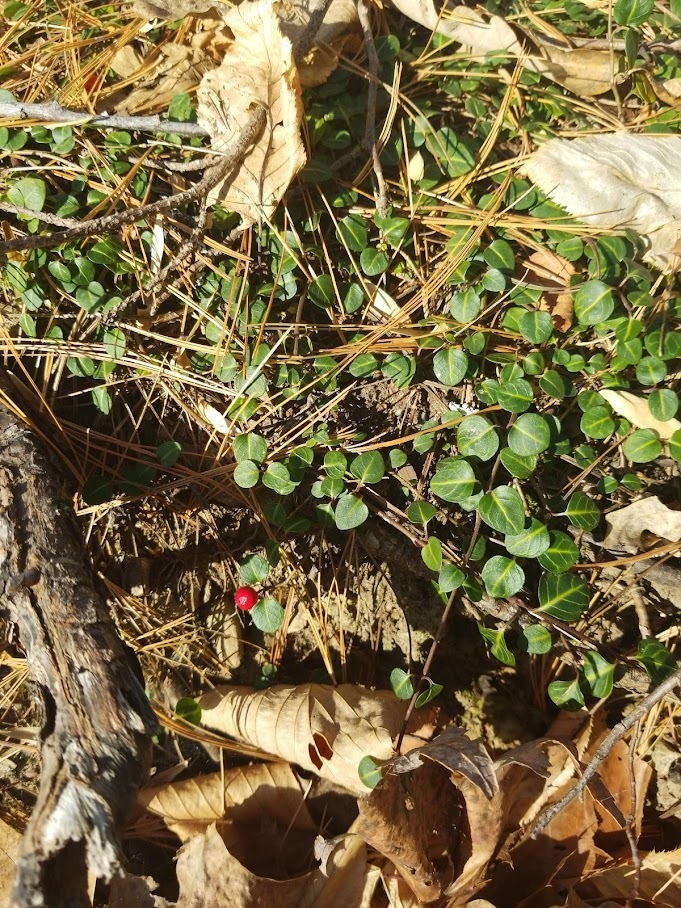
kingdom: Plantae
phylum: Tracheophyta
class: Magnoliopsida
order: Gentianales
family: Rubiaceae
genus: Mitchella
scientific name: Mitchella repens
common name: Partridge-berry
